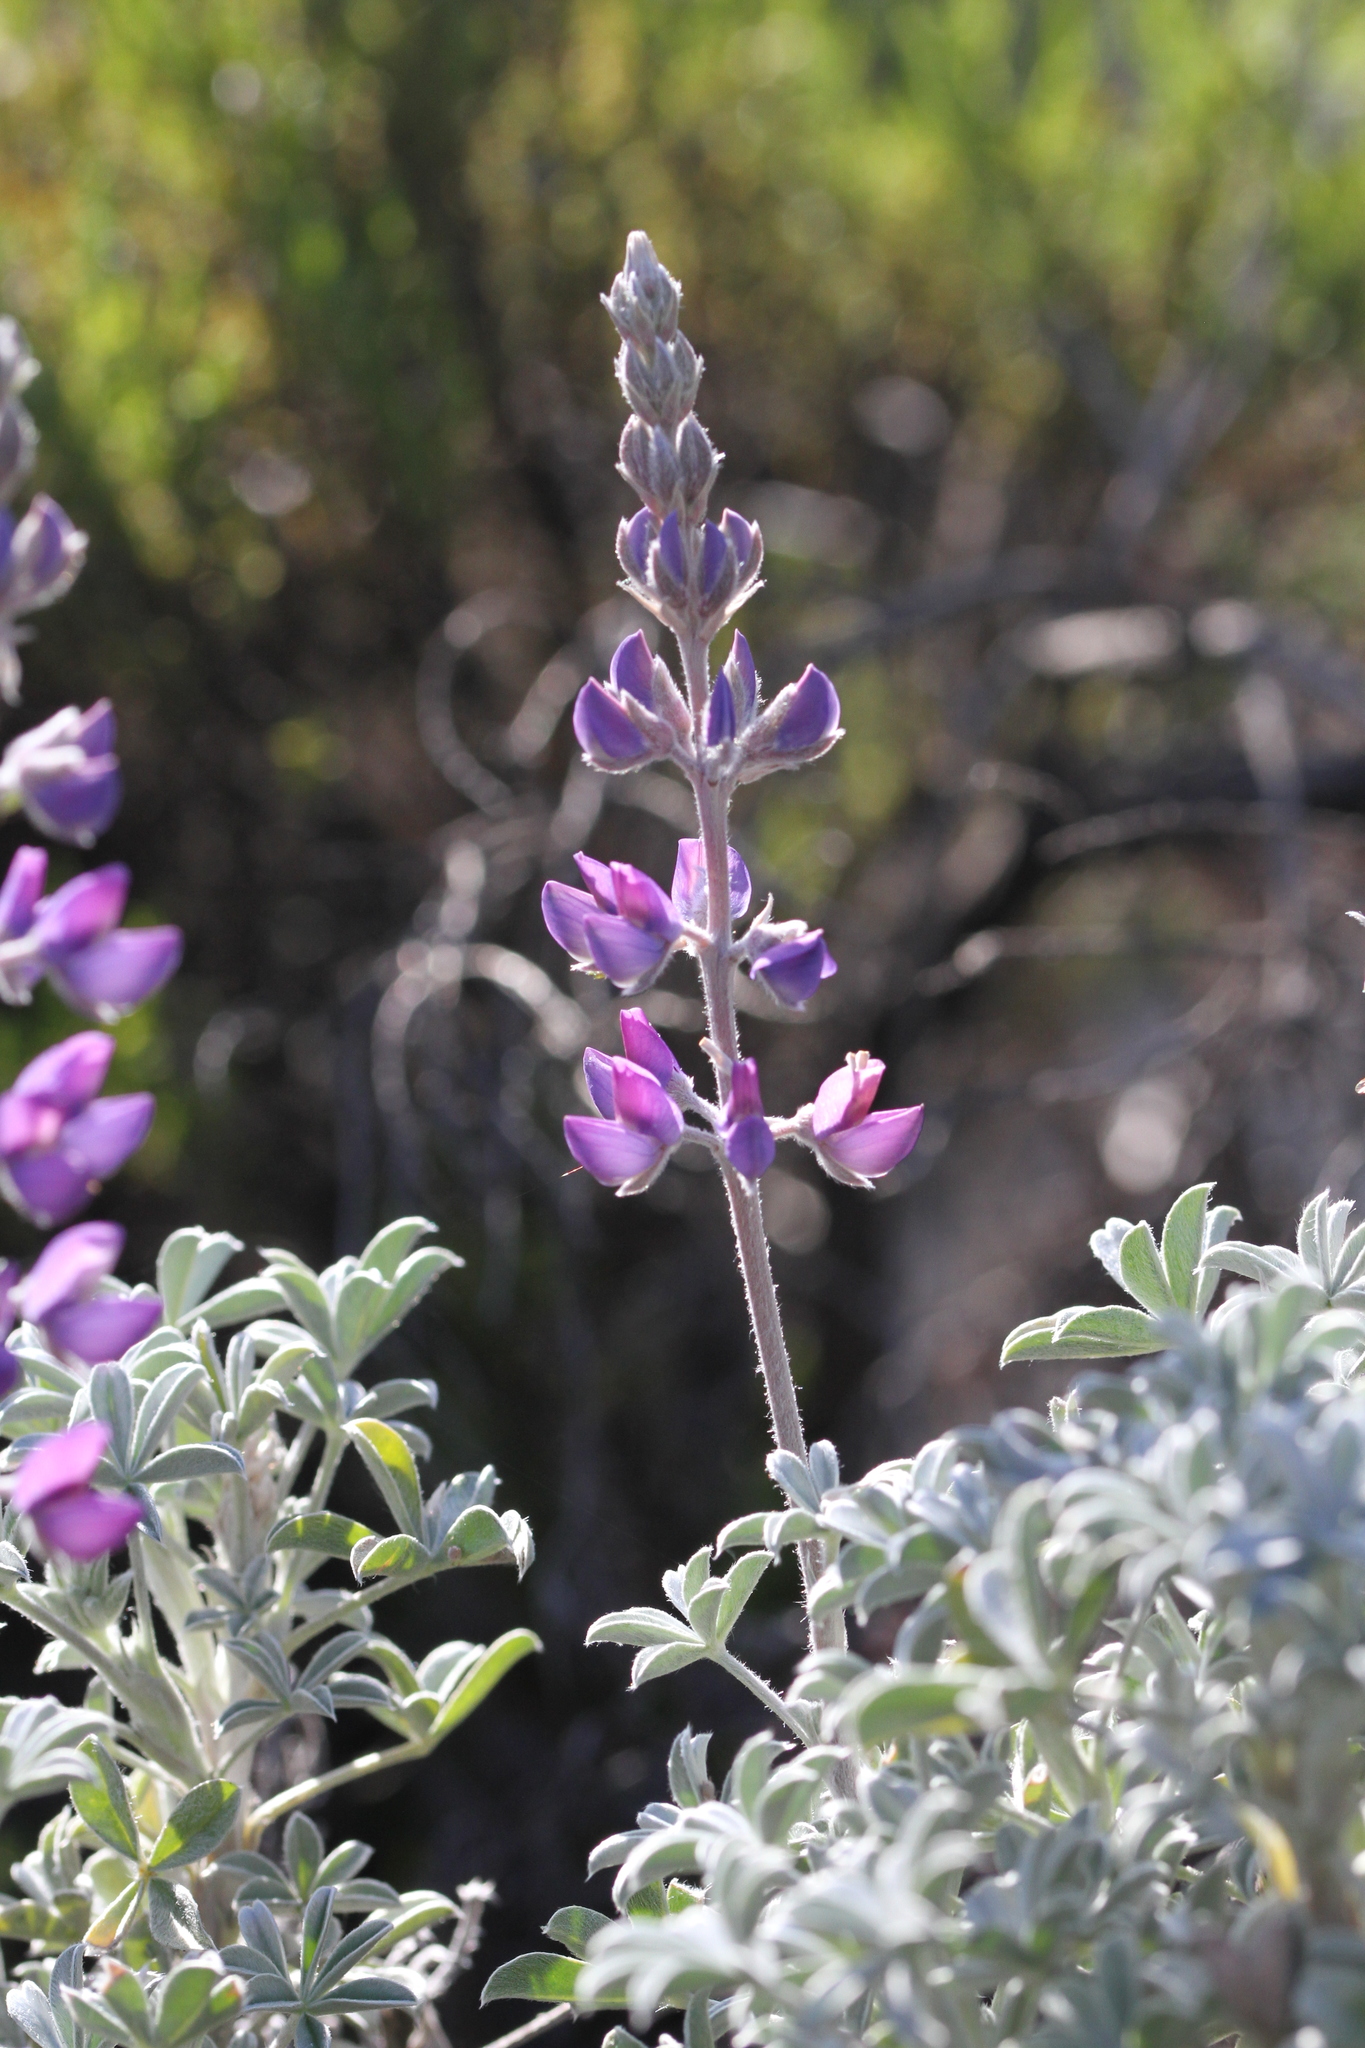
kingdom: Plantae
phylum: Tracheophyta
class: Magnoliopsida
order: Fabales
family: Fabaceae
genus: Lupinus
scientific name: Lupinus albifrons
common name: Foothill lupine
